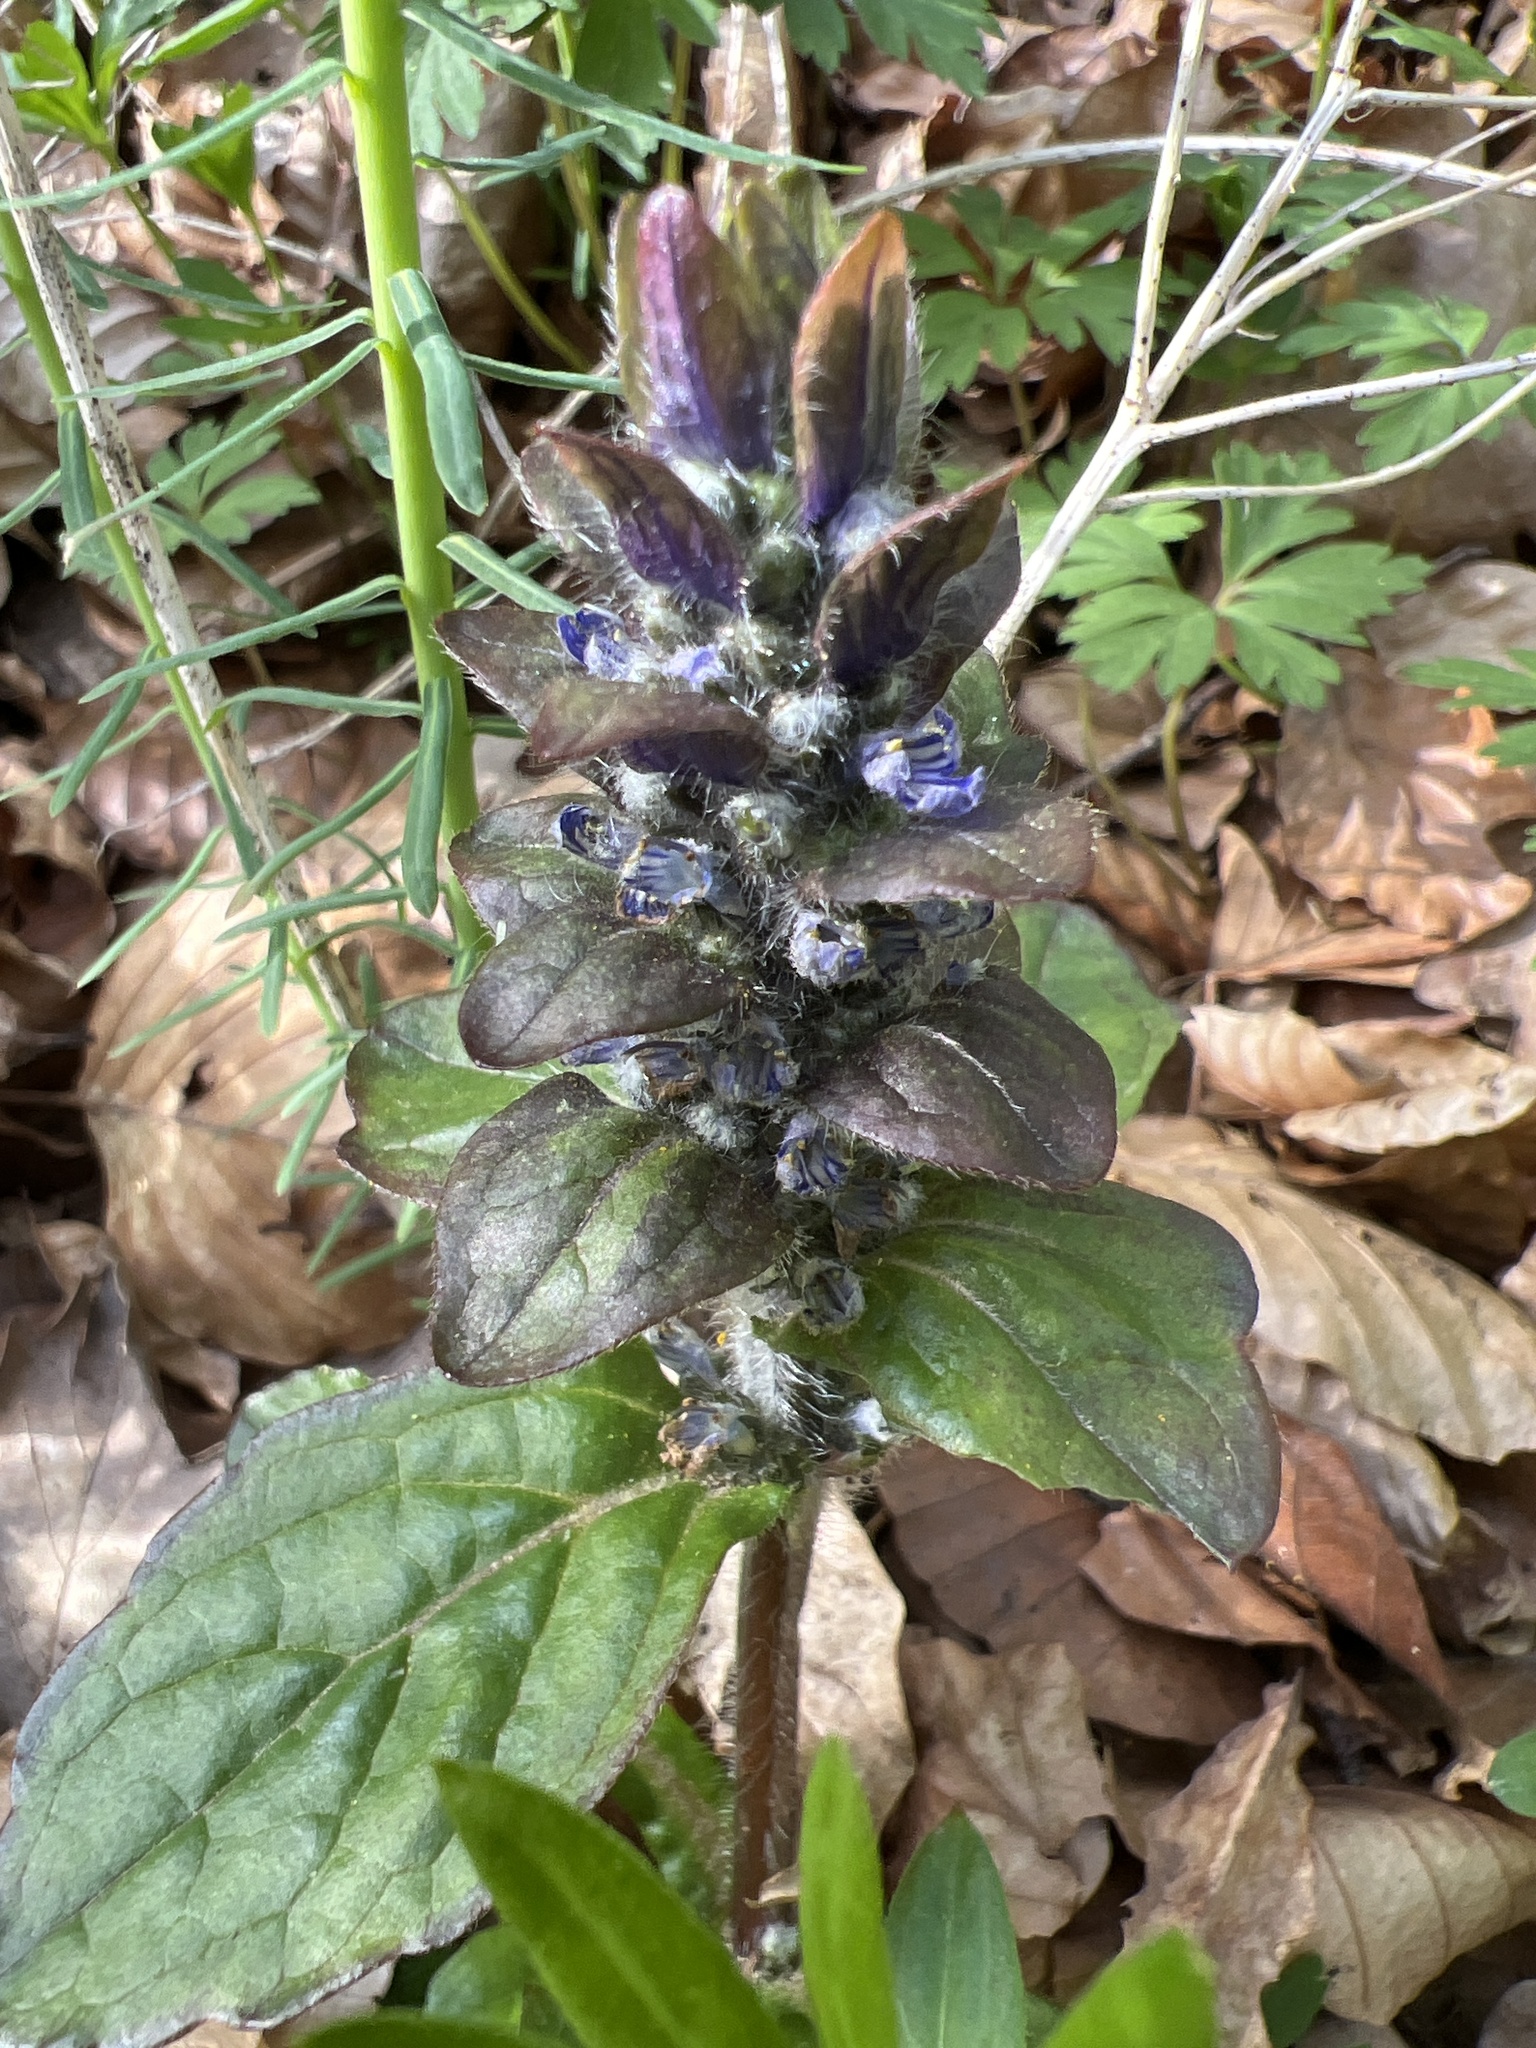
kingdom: Plantae
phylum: Tracheophyta
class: Magnoliopsida
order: Lamiales
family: Lamiaceae
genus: Ajuga
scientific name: Ajuga reptans
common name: Bugle
